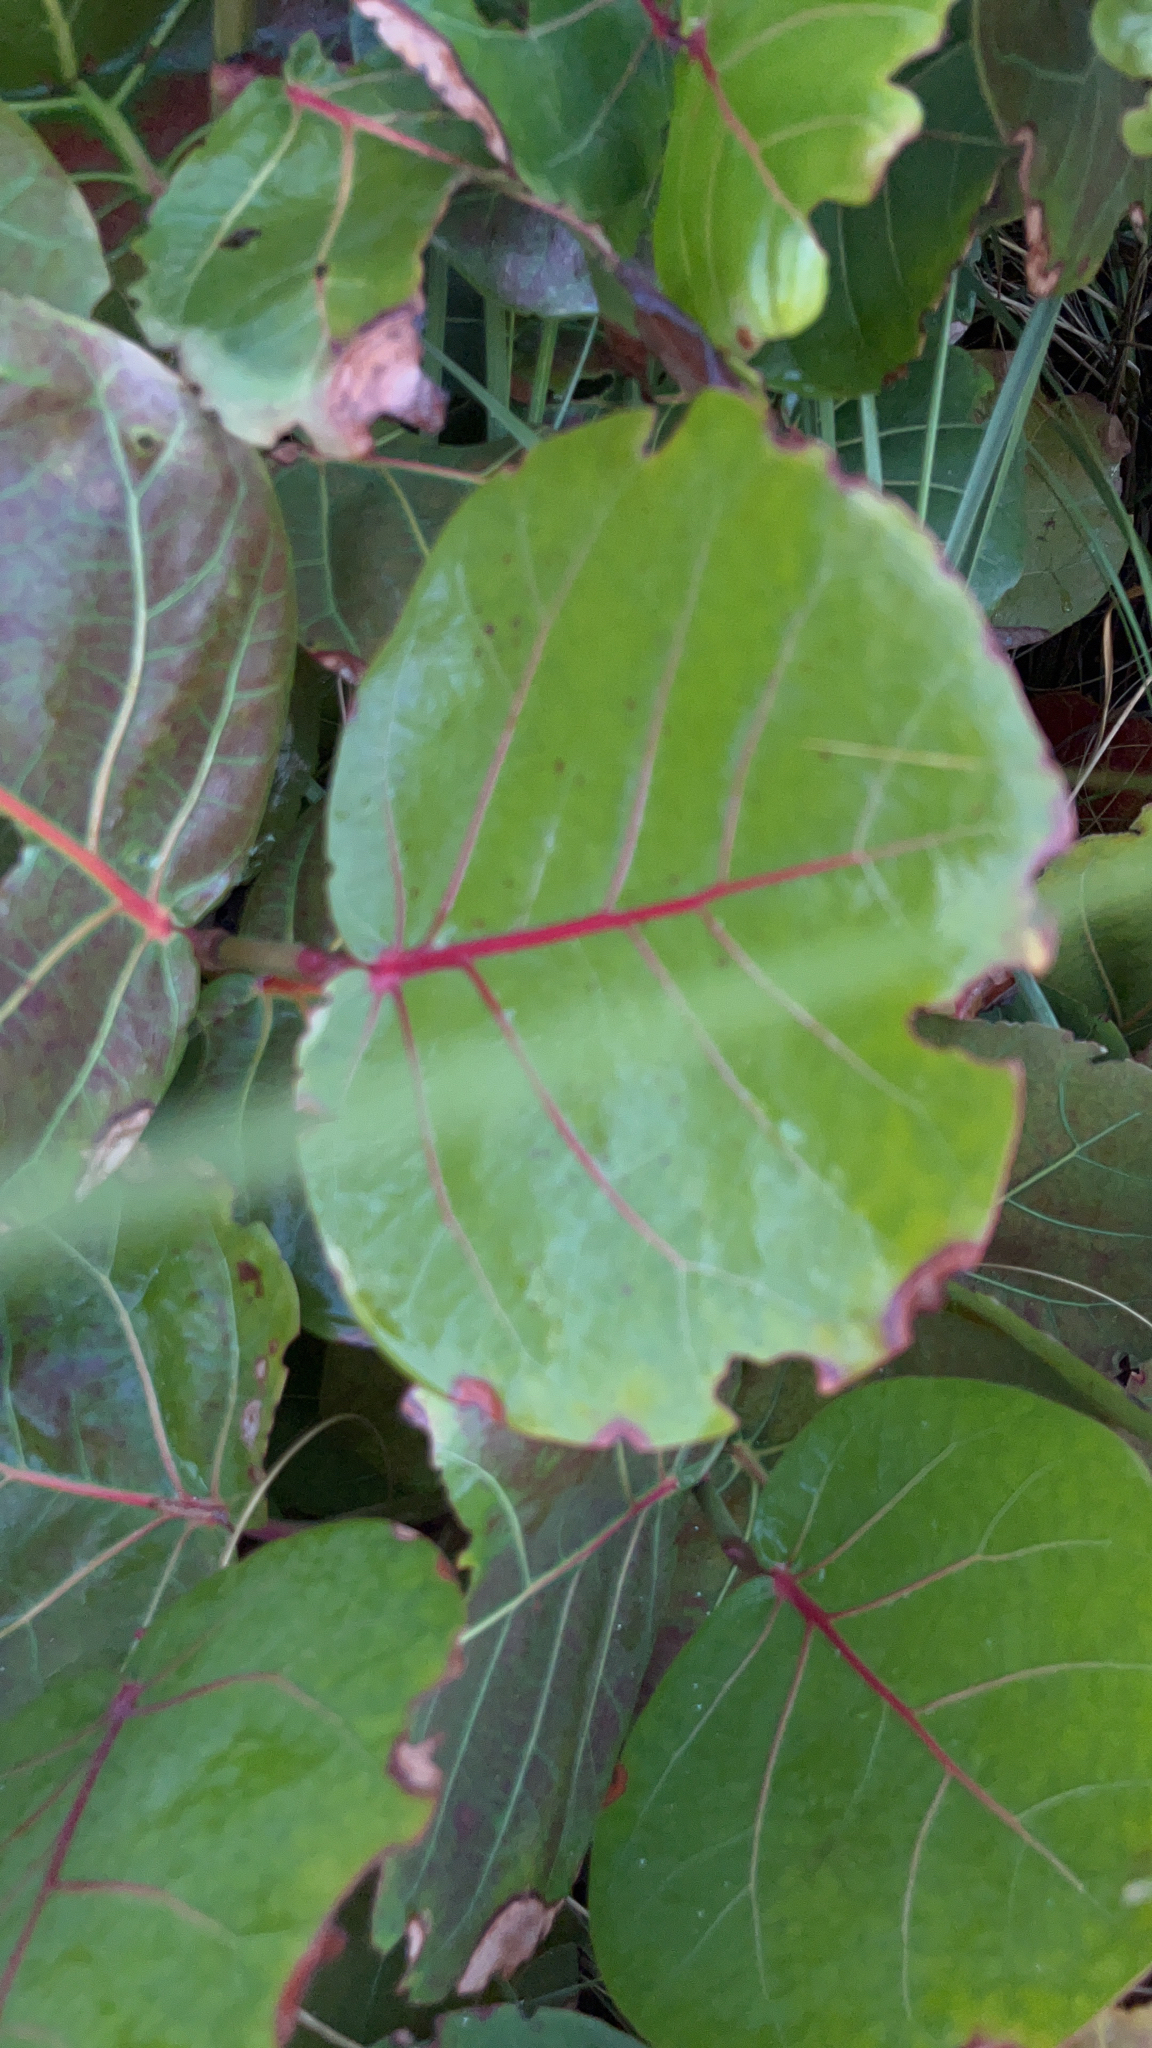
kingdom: Plantae
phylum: Tracheophyta
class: Magnoliopsida
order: Caryophyllales
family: Polygonaceae
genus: Coccoloba
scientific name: Coccoloba uvifera
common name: Seagrape
